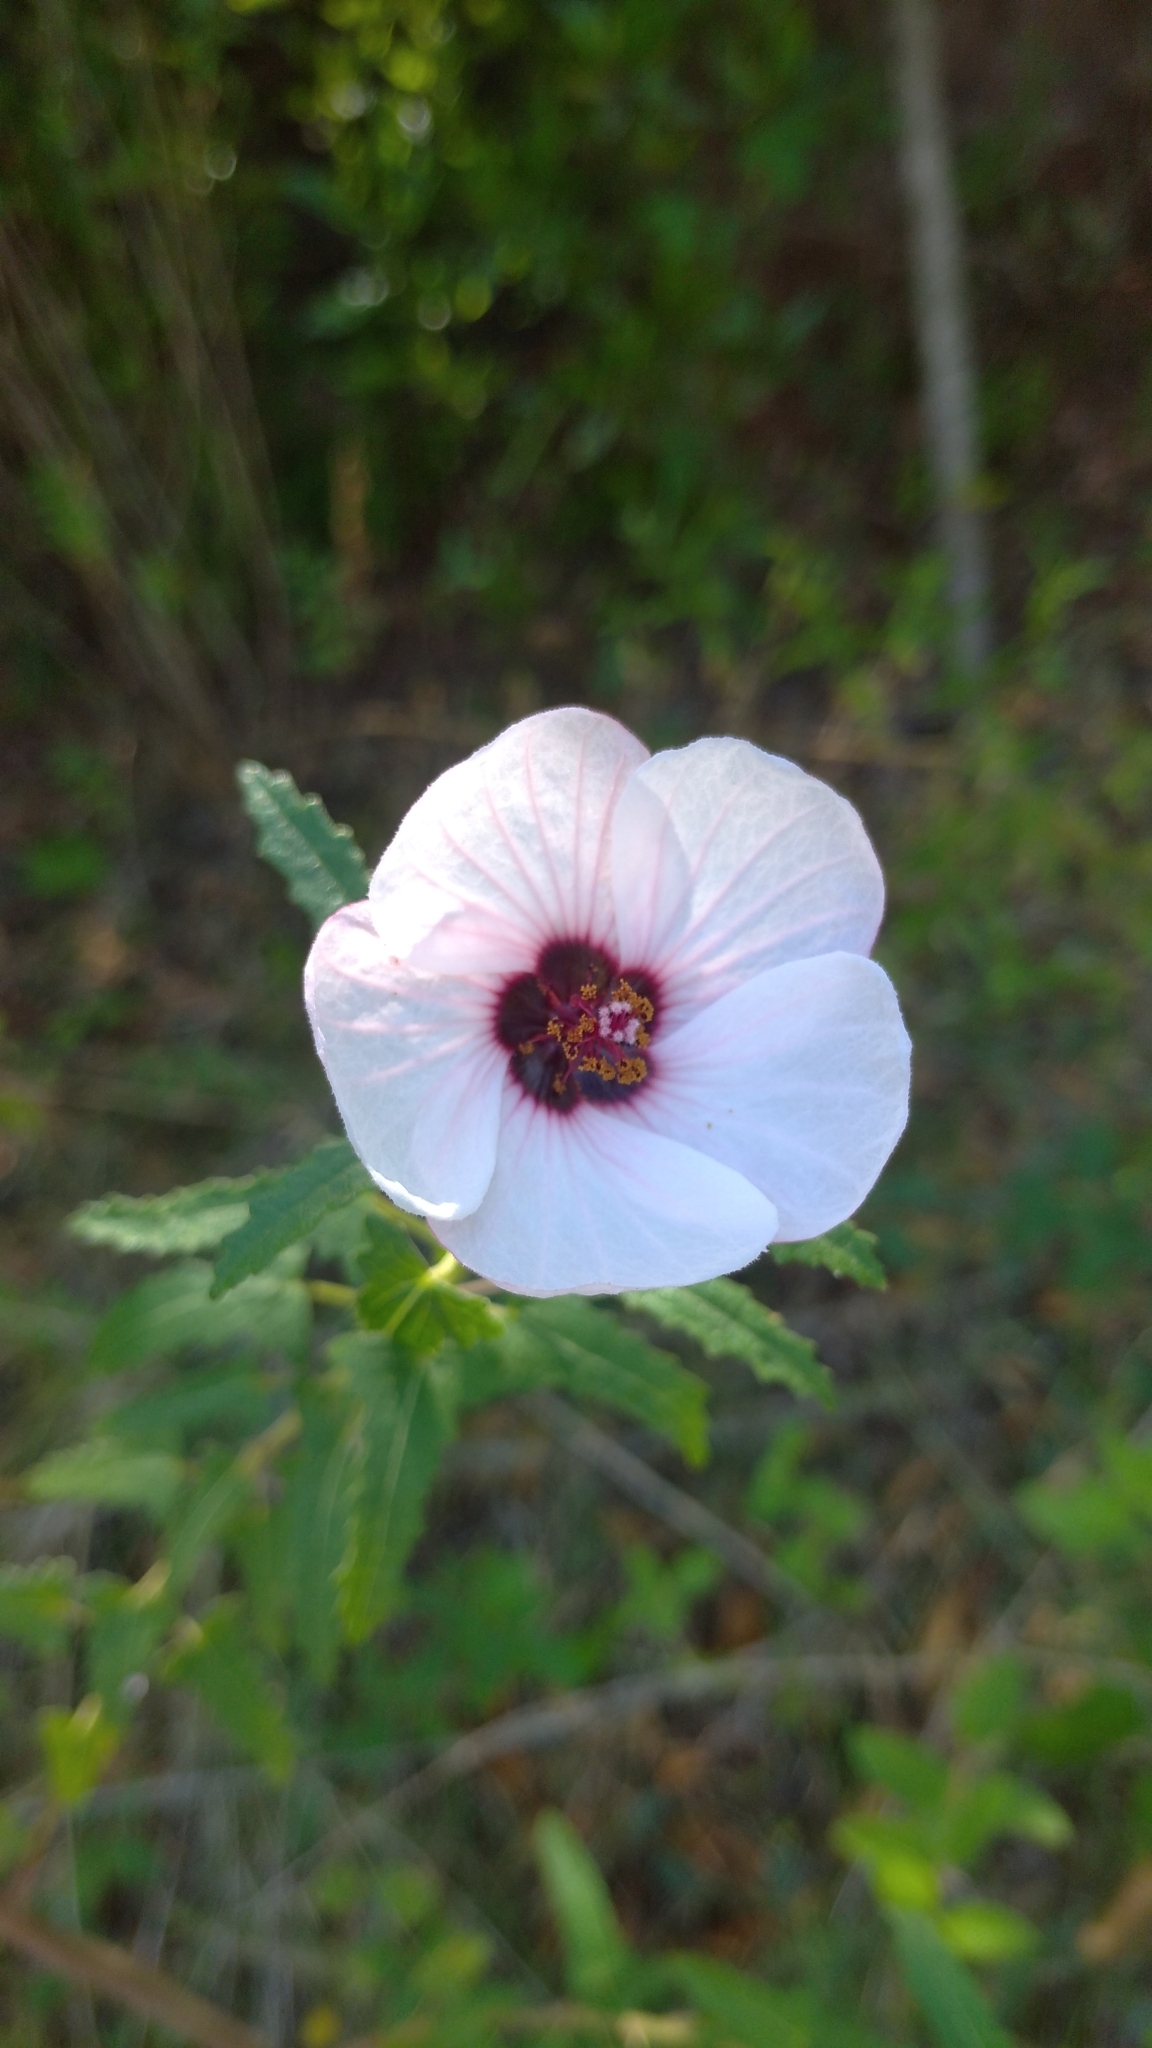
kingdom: Plantae
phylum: Tracheophyta
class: Magnoliopsida
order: Malvales
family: Malvaceae
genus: Pavonia
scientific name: Pavonia hastata
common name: Spearleaf swampmallow
